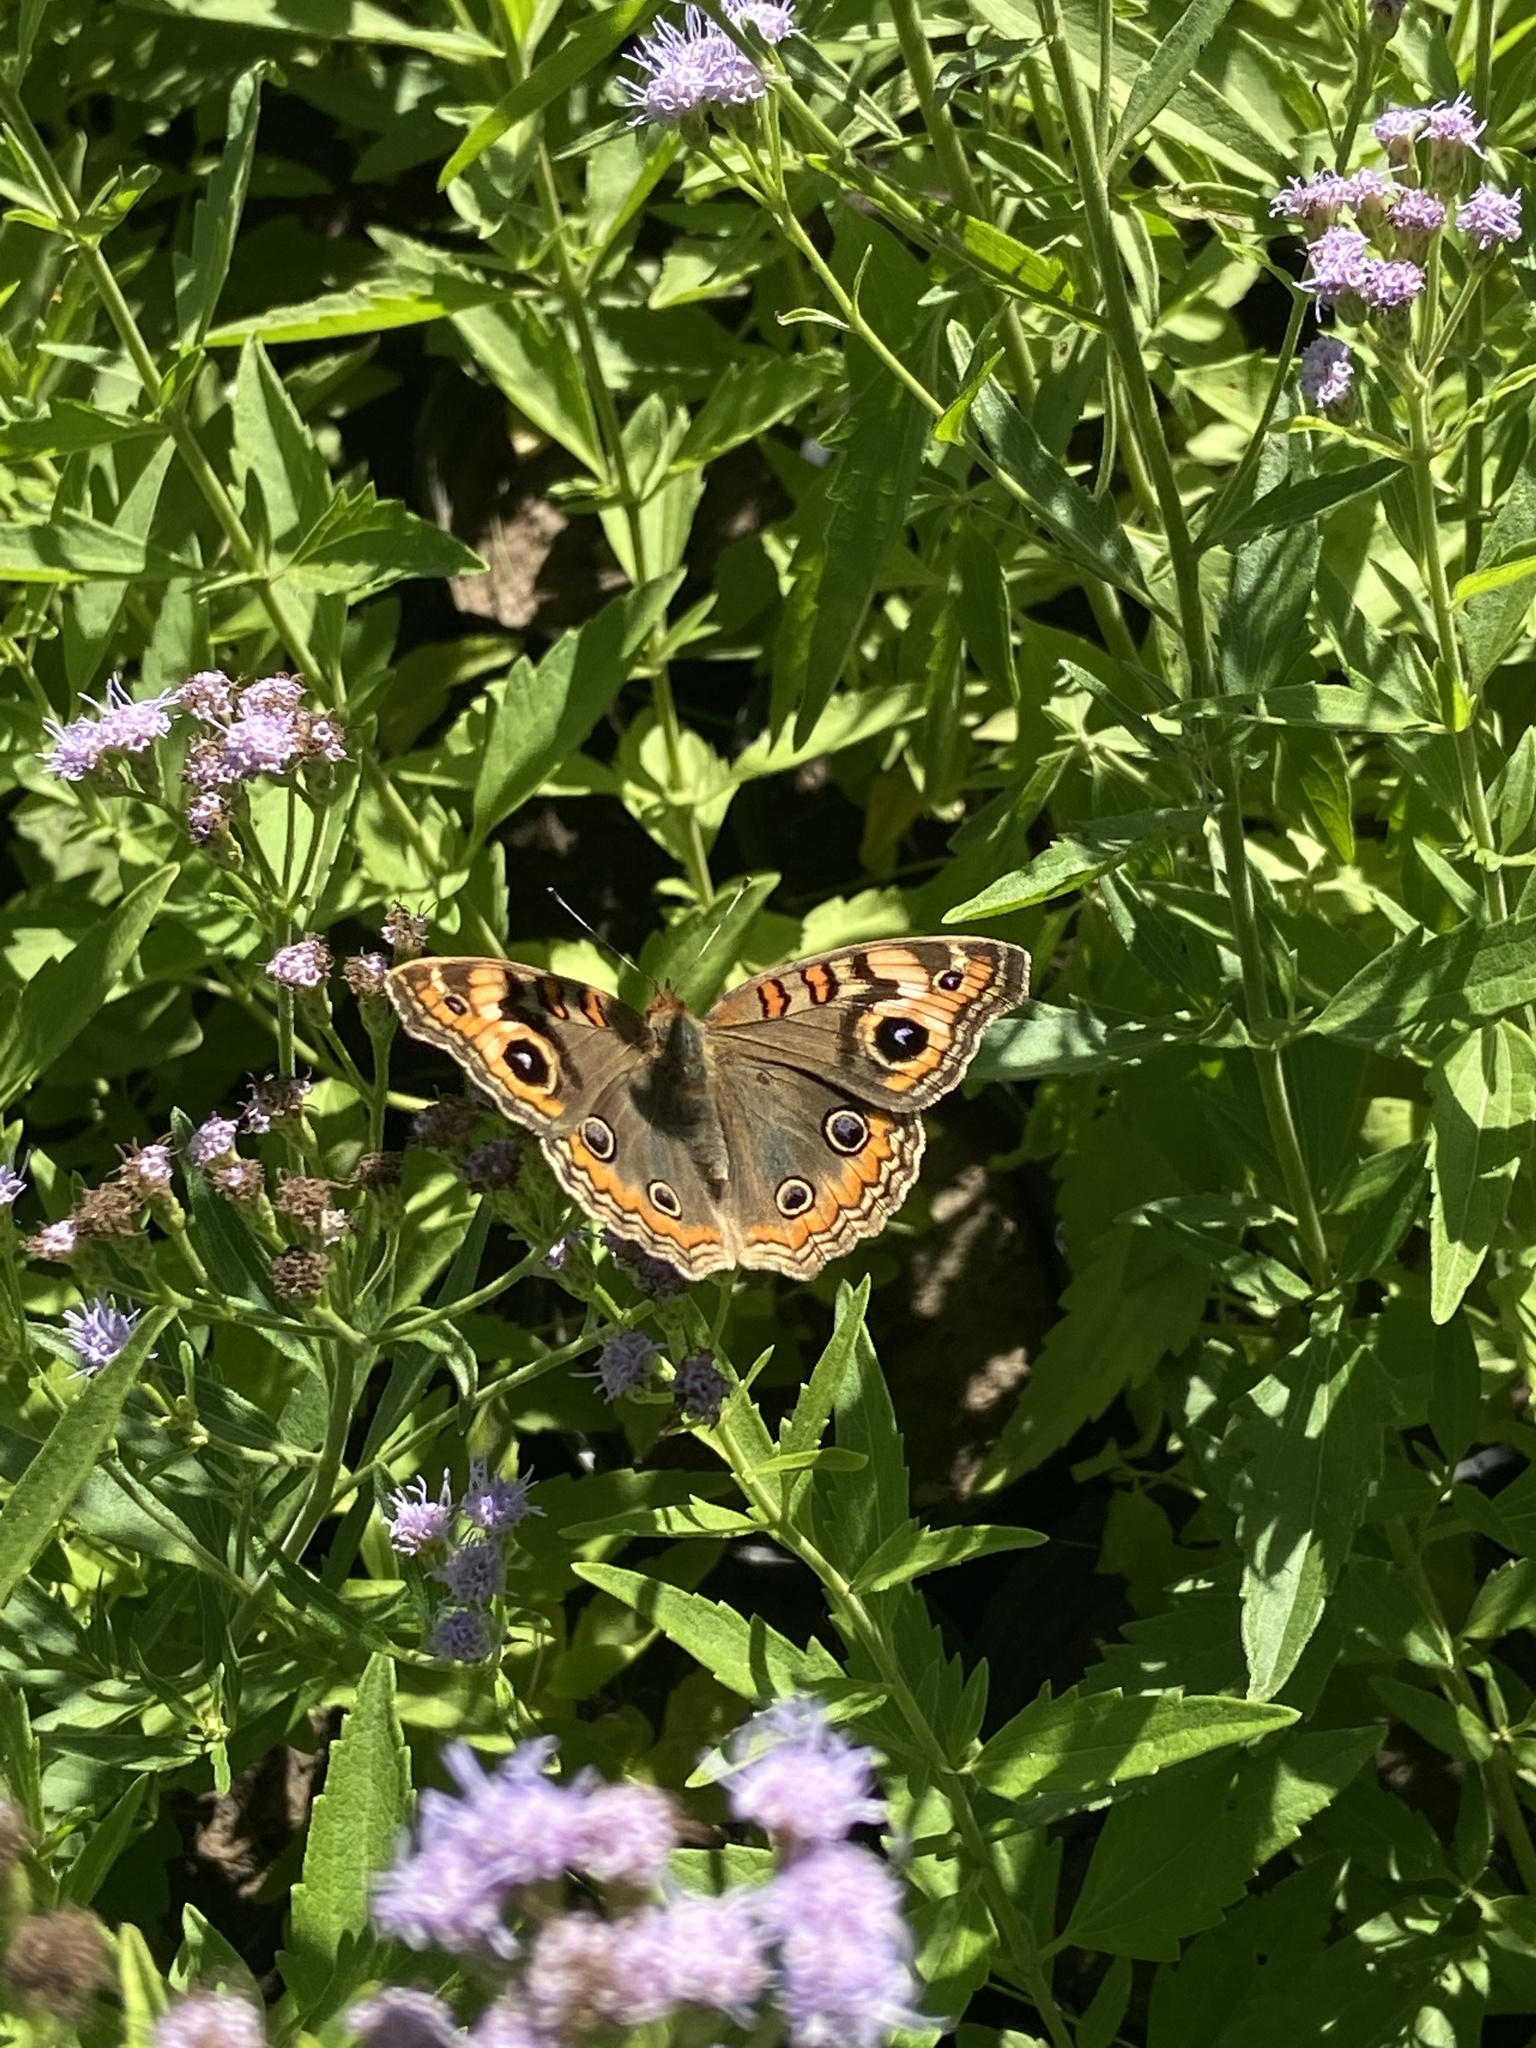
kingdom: Animalia
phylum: Arthropoda
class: Insecta
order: Lepidoptera
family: Nymphalidae
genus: Junonia
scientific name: Junonia lavinia
